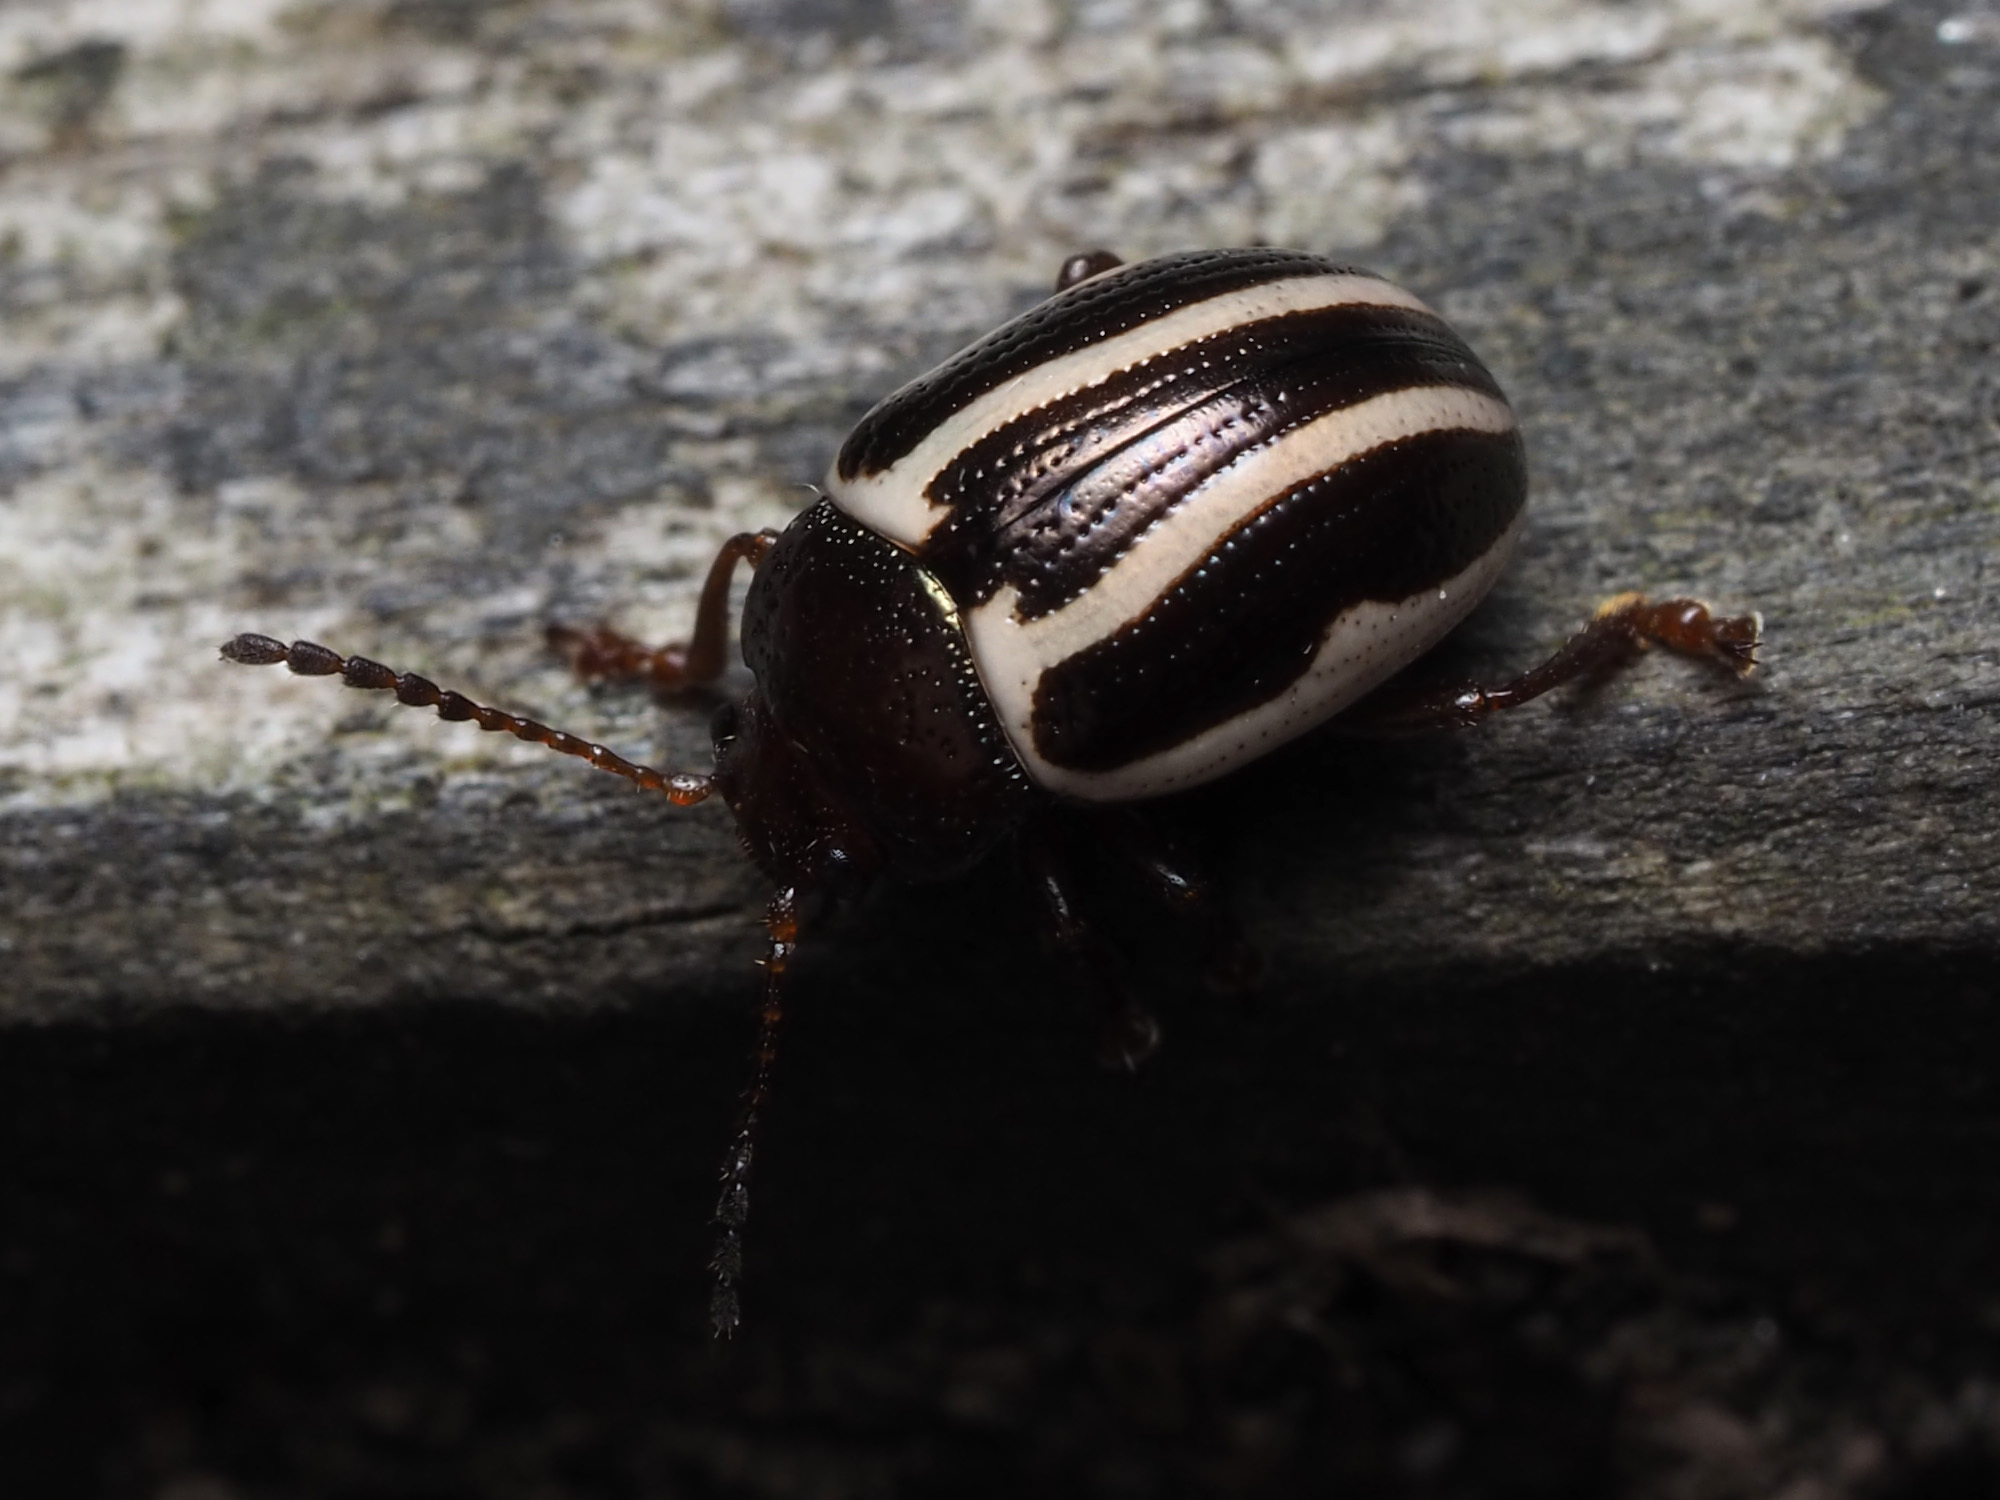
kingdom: Animalia
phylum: Arthropoda
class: Insecta
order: Coleoptera
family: Chrysomelidae
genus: Calligrapha
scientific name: Calligrapha
